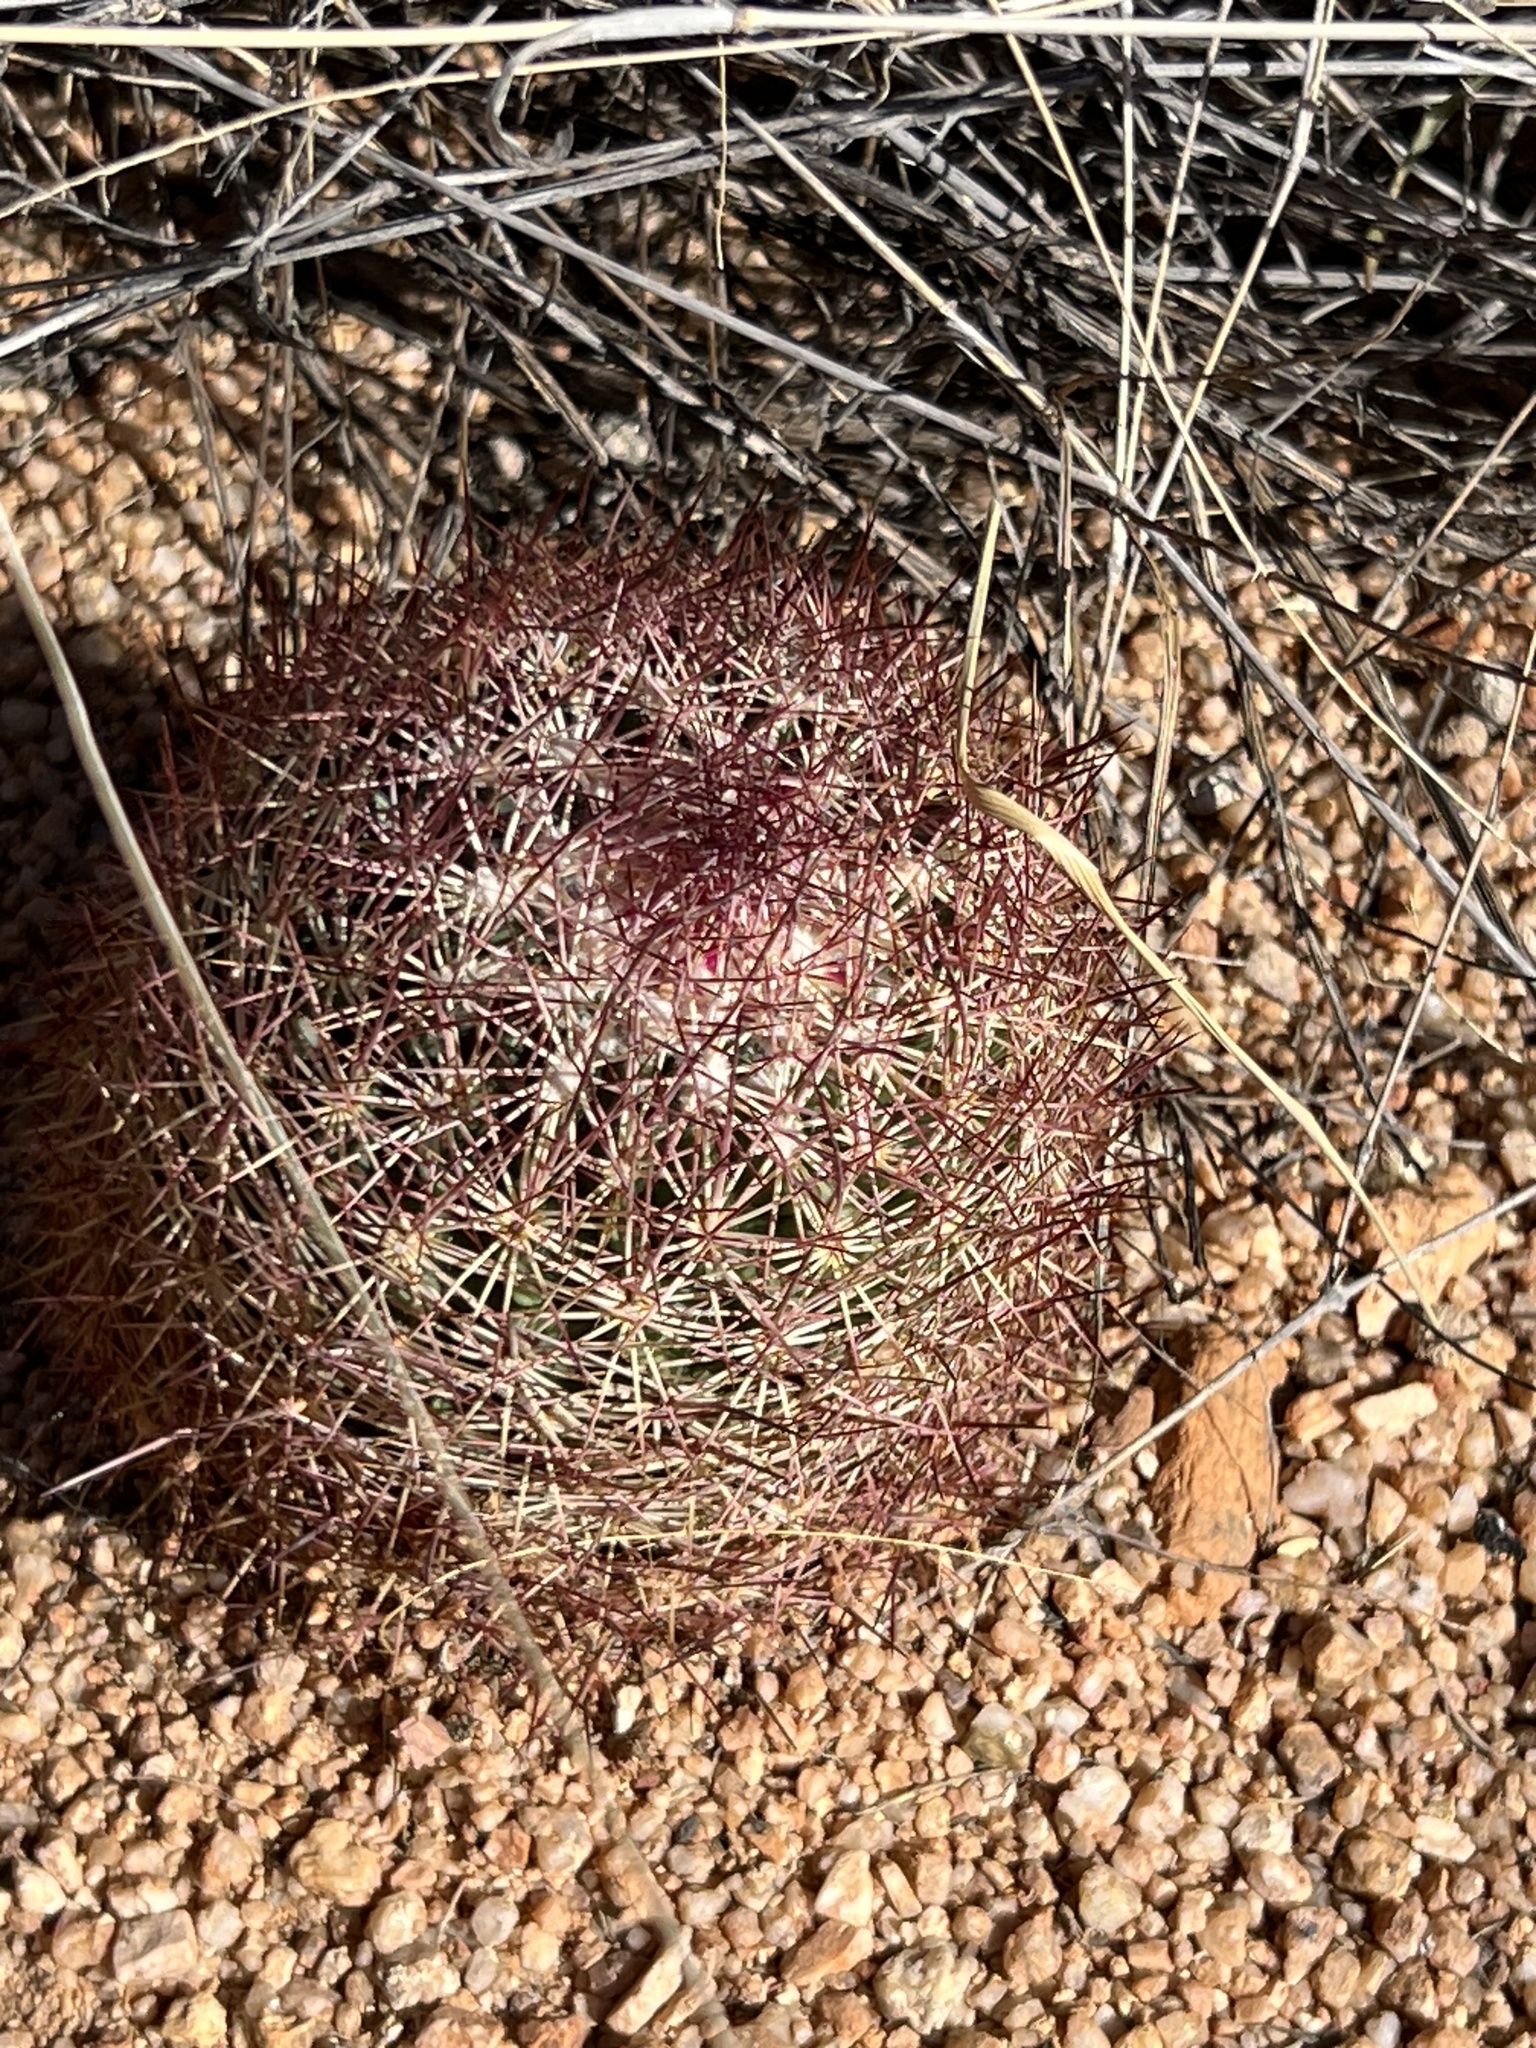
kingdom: Plantae
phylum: Tracheophyta
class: Magnoliopsida
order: Caryophyllales
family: Cactaceae
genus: Sclerocactus
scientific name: Sclerocactus johnsonii
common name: Eight-spine fishhook cactus
